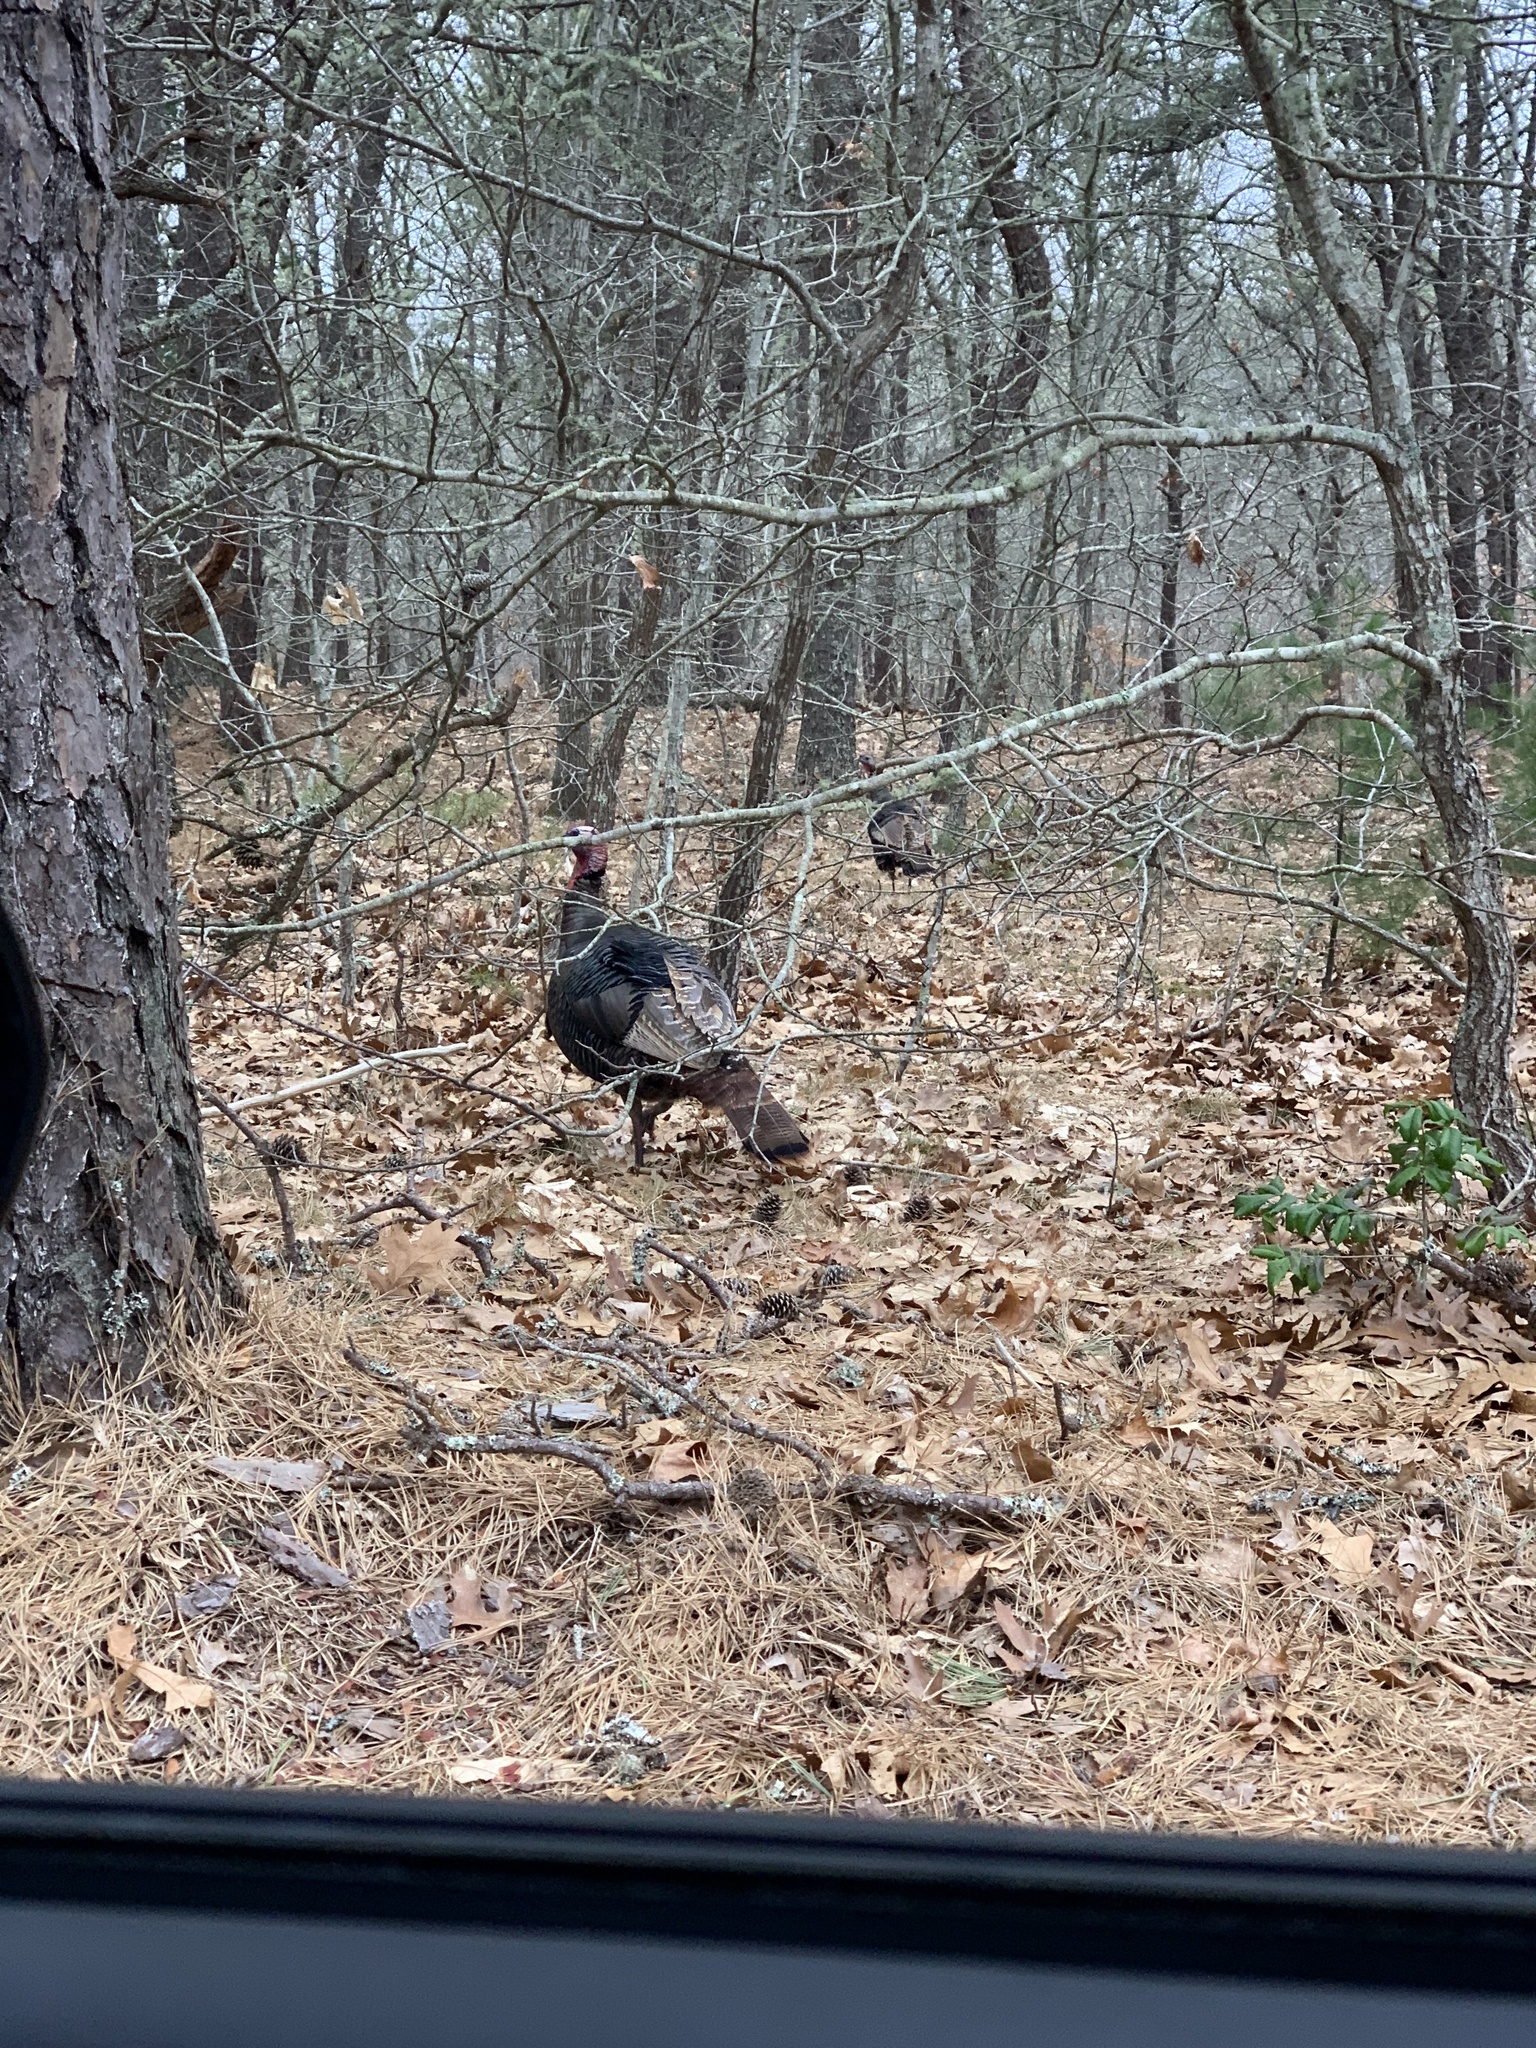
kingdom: Animalia
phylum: Chordata
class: Aves
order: Galliformes
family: Phasianidae
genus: Meleagris
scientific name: Meleagris gallopavo
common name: Wild turkey
